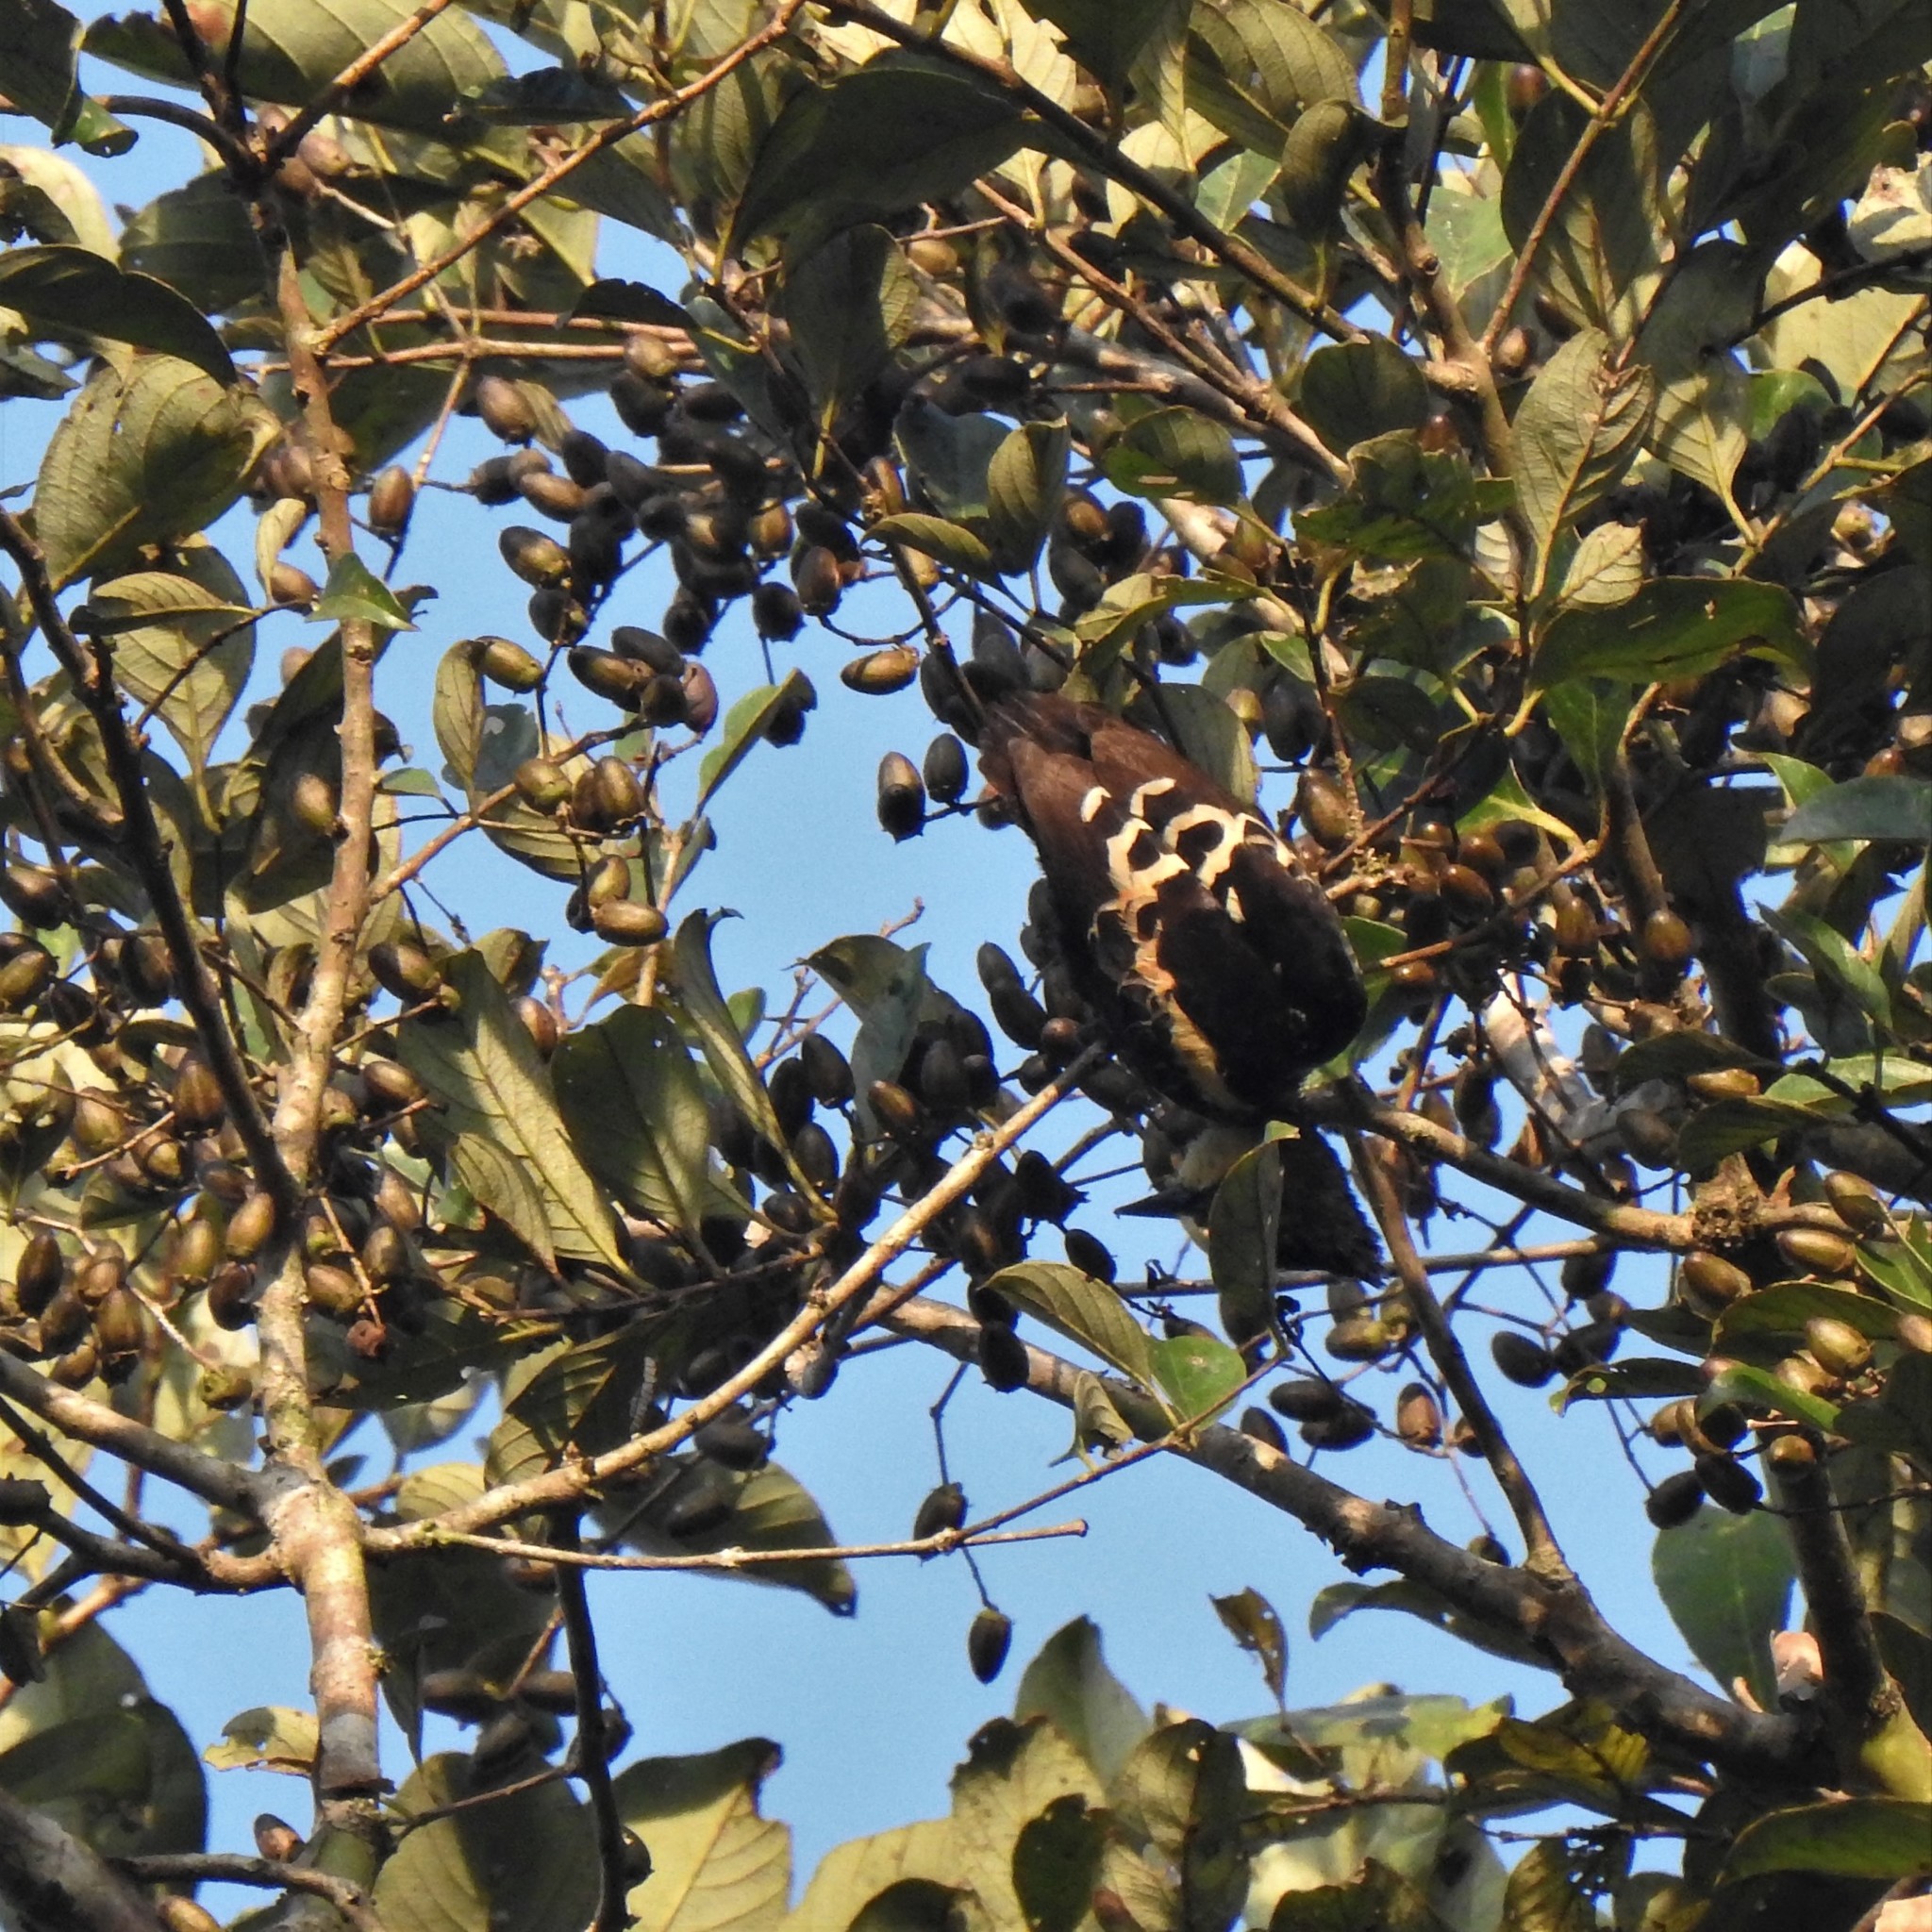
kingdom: Animalia
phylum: Chordata
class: Aves
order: Piciformes
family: Picidae
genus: Hemicircus
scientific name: Hemicircus canente
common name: Heart-spotted woodpecker
